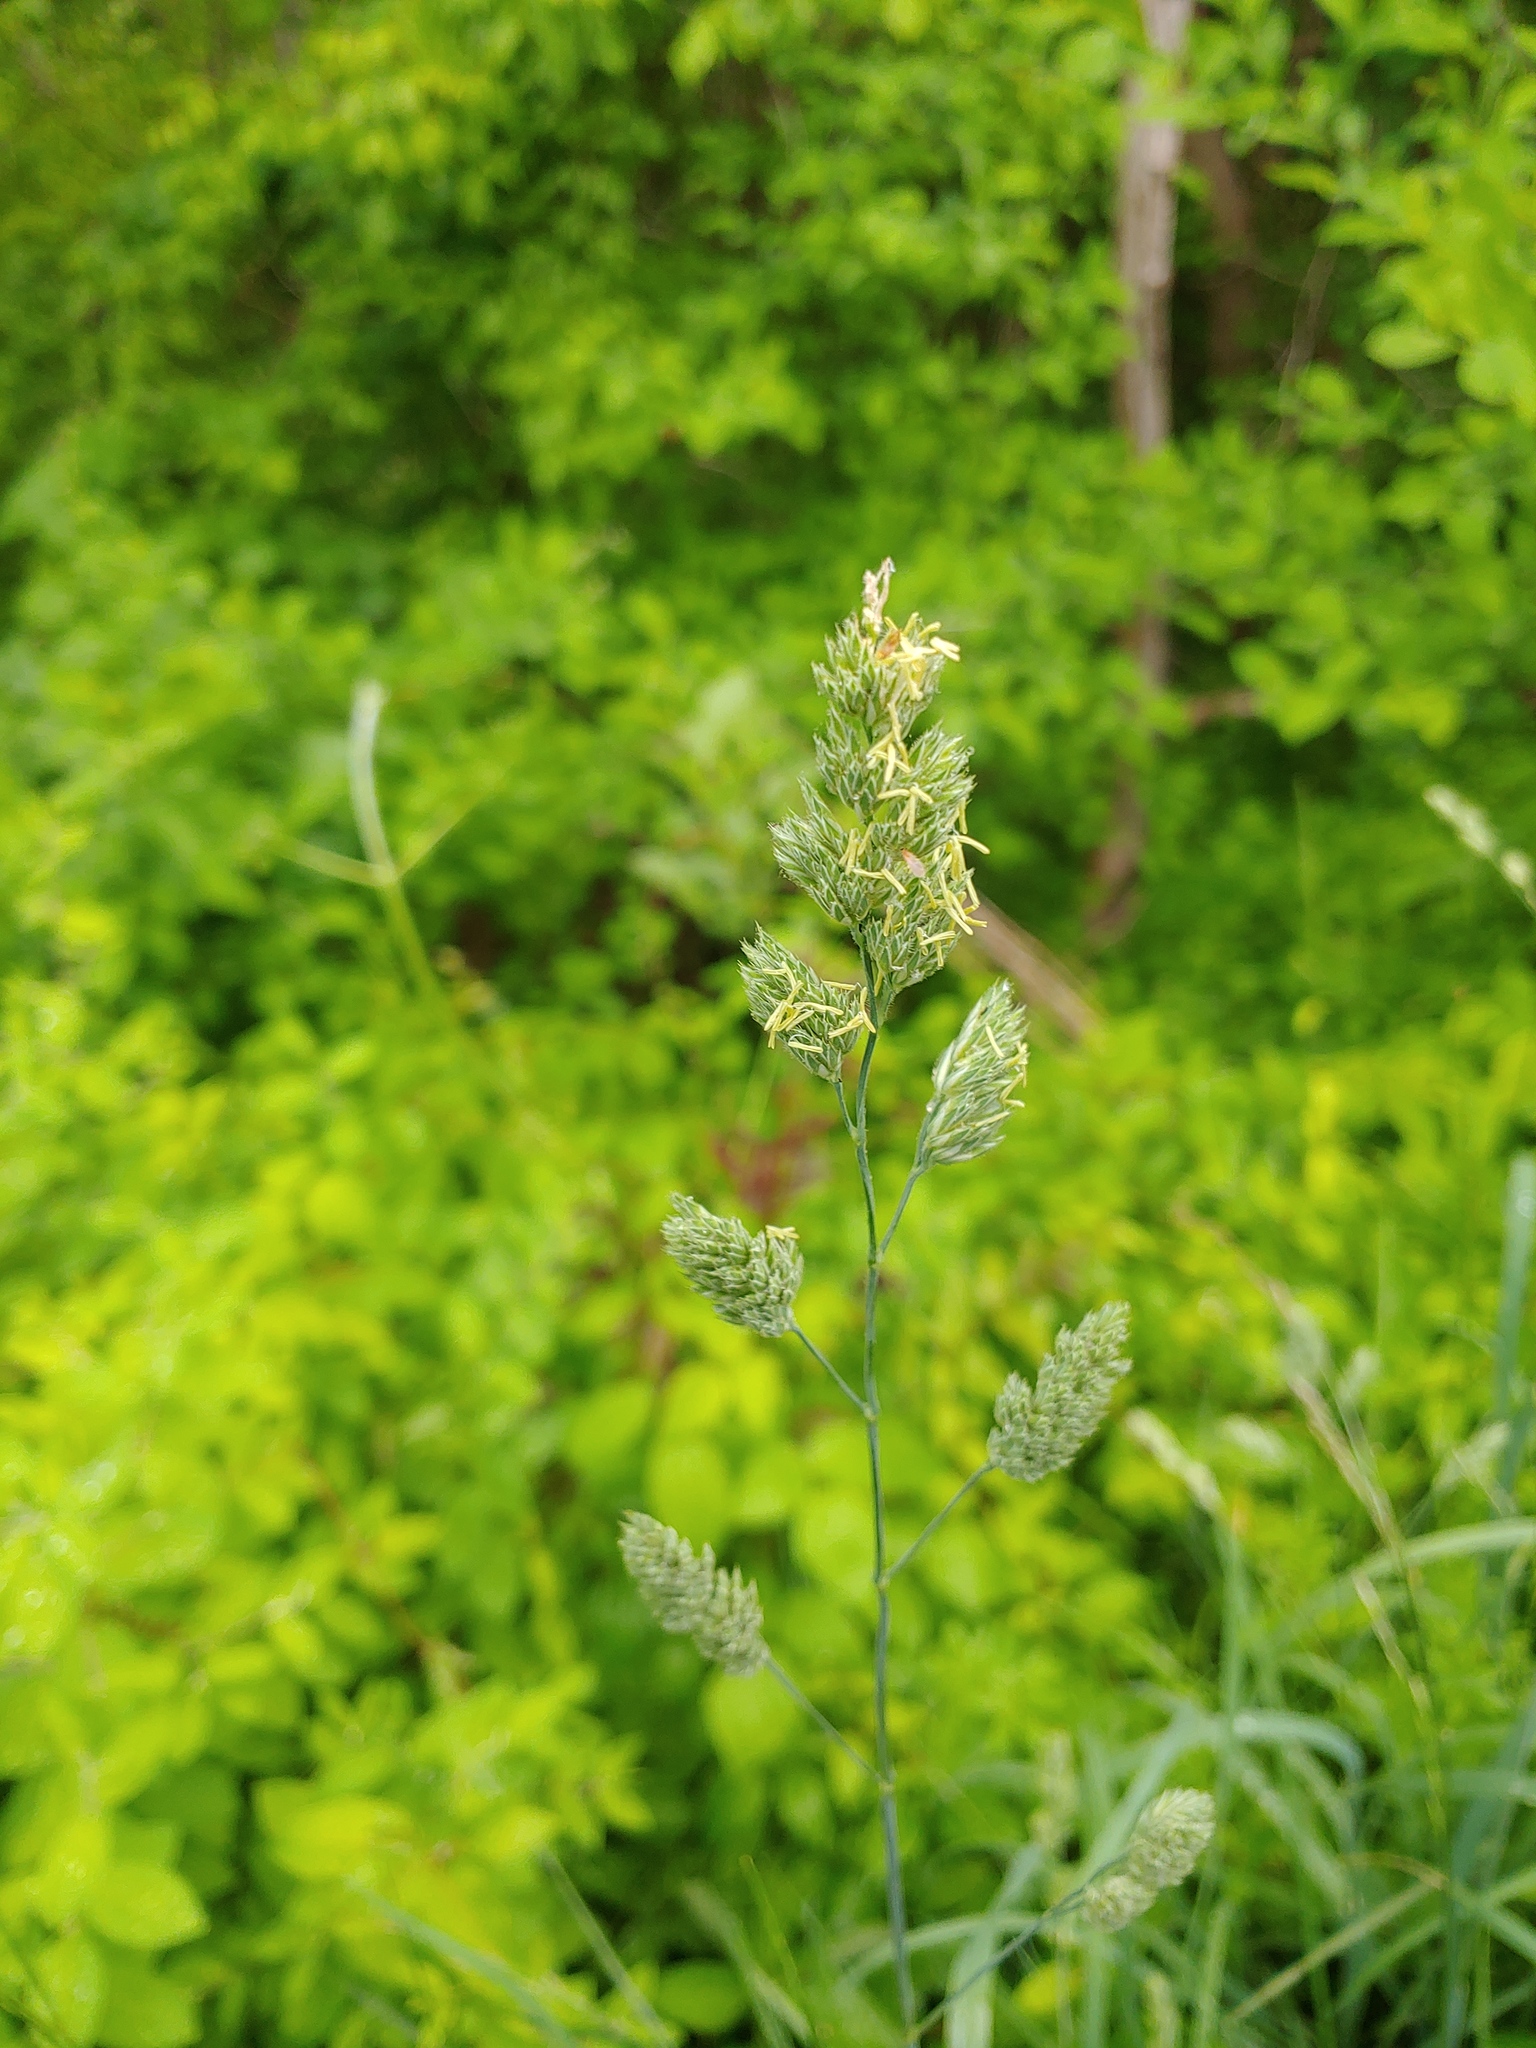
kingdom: Plantae
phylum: Tracheophyta
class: Liliopsida
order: Poales
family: Poaceae
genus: Dactylis
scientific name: Dactylis glomerata
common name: Orchardgrass
